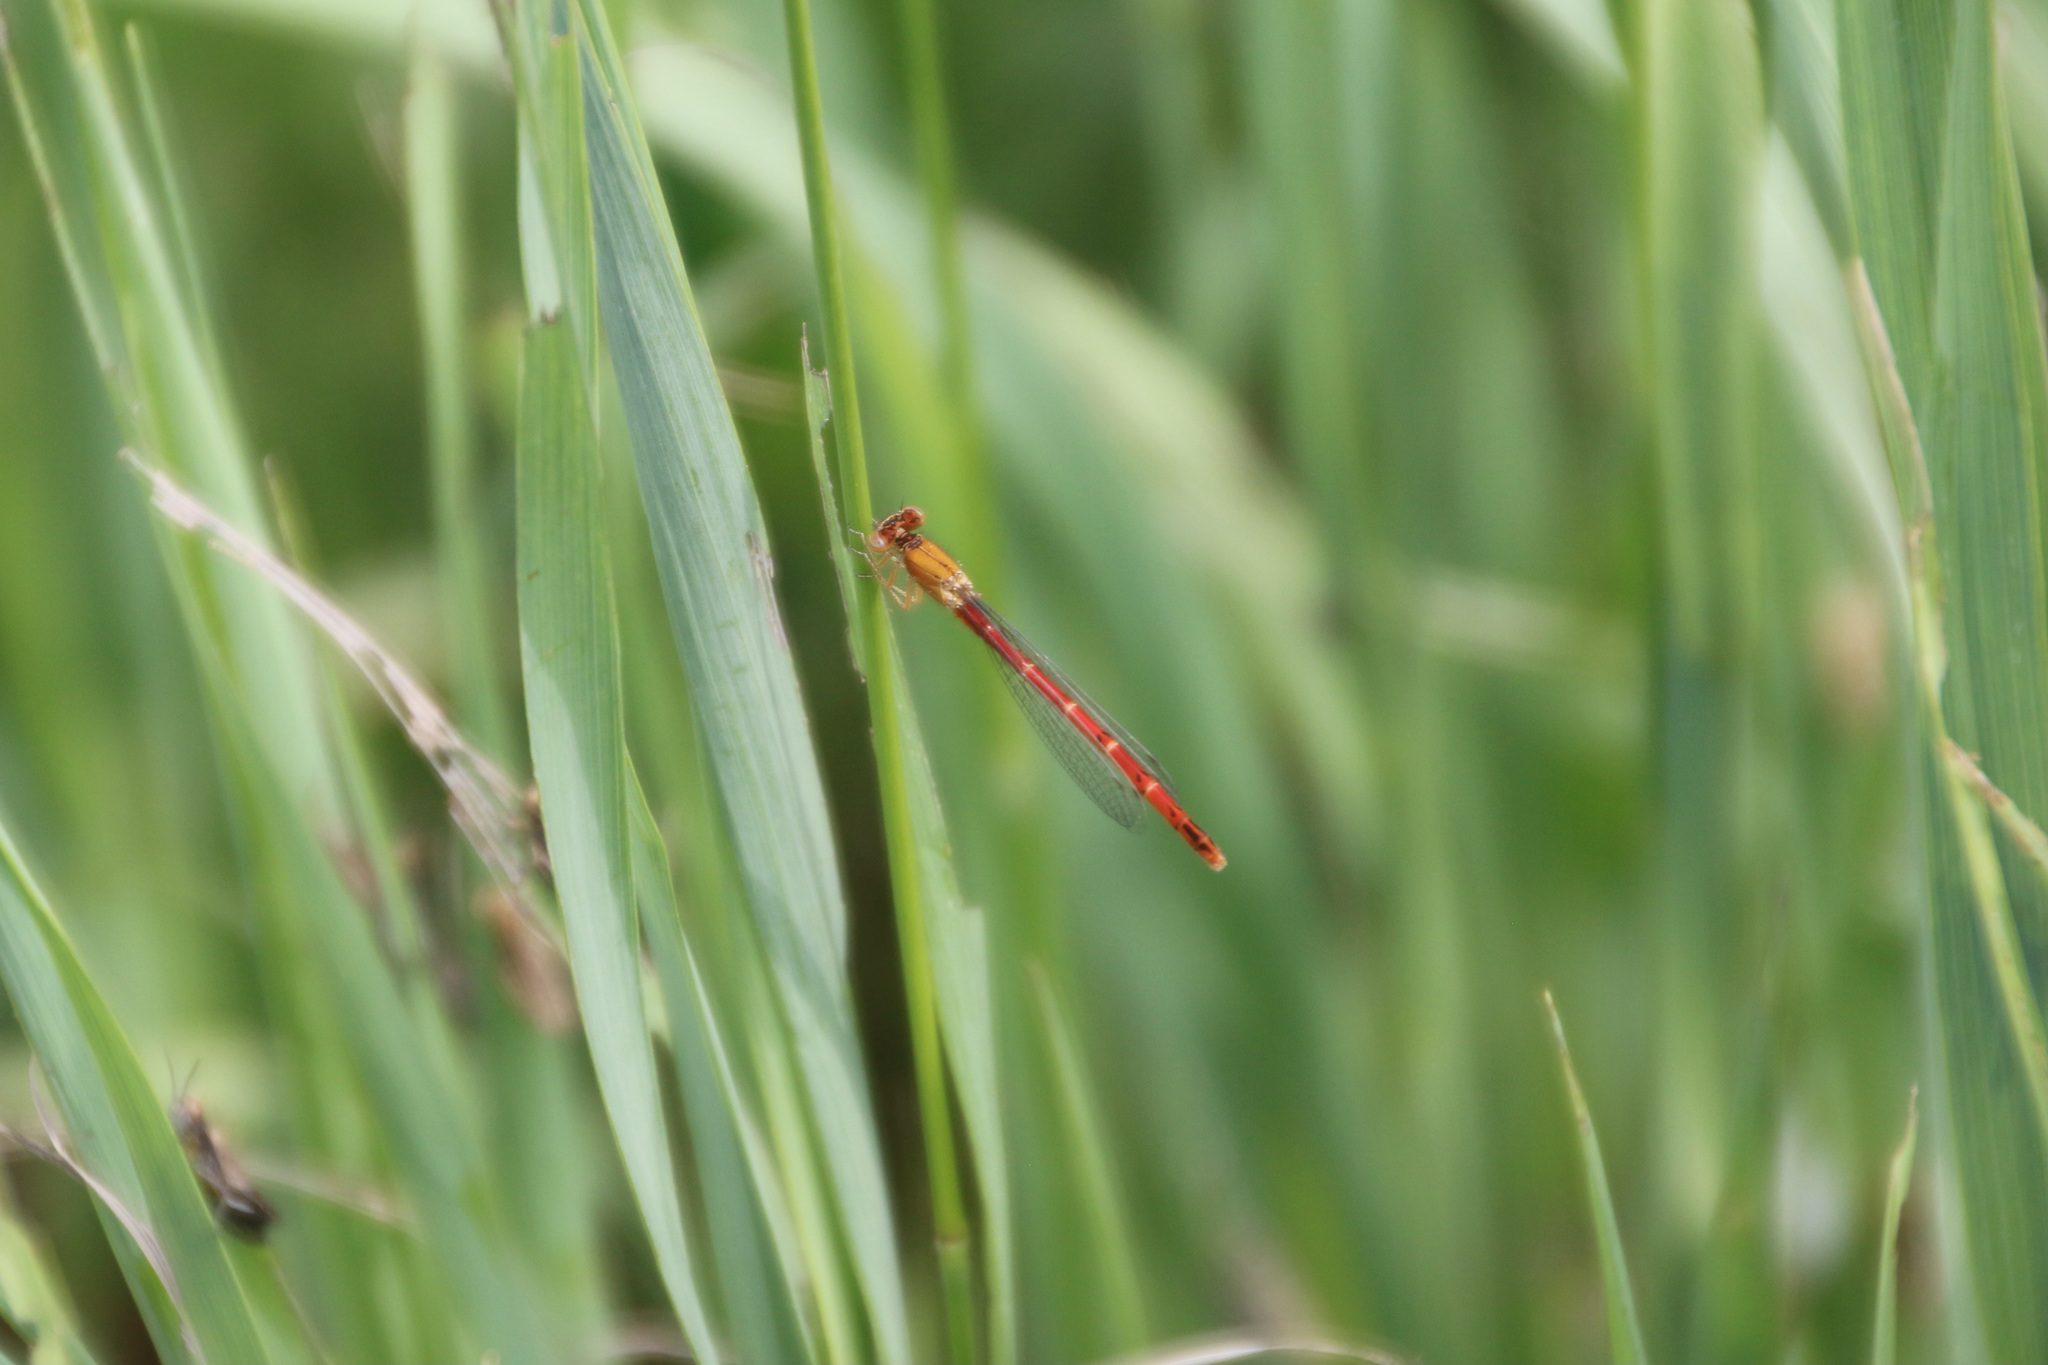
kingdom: Animalia
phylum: Arthropoda
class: Insecta
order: Odonata
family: Coenagrionidae
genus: Amphiagrion
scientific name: Amphiagrion abbreviatum
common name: Western red damsel
